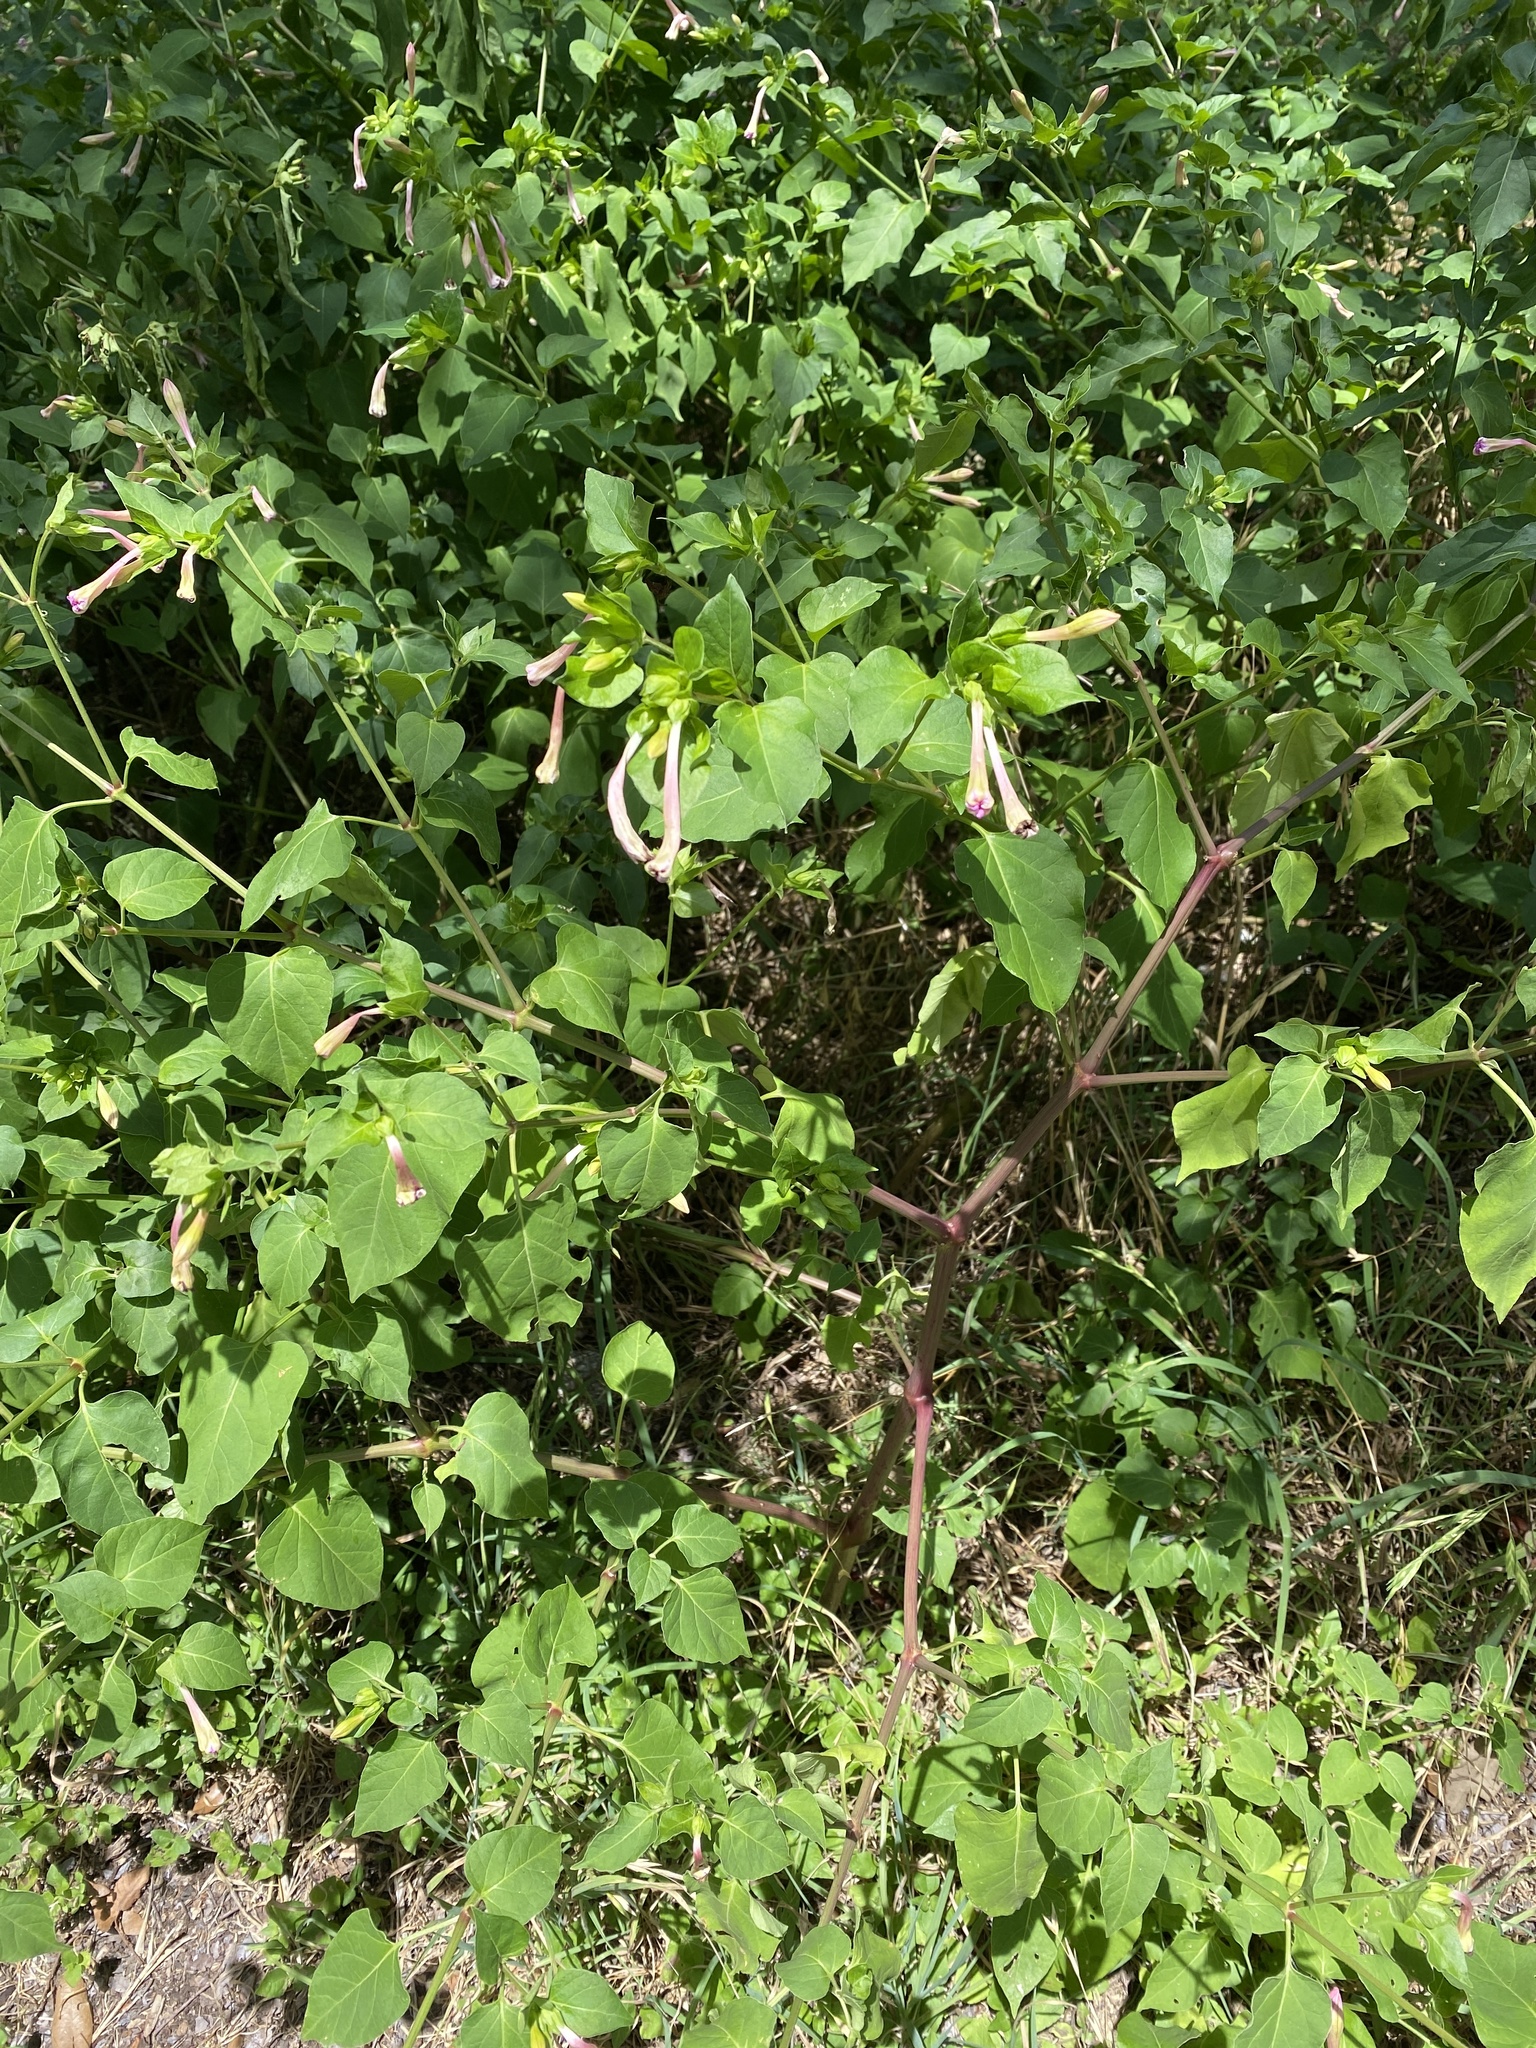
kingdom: Plantae
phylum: Tracheophyta
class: Magnoliopsida
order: Caryophyllales
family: Nyctaginaceae
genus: Mirabilis
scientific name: Mirabilis jalapa
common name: Marvel-of-peru
